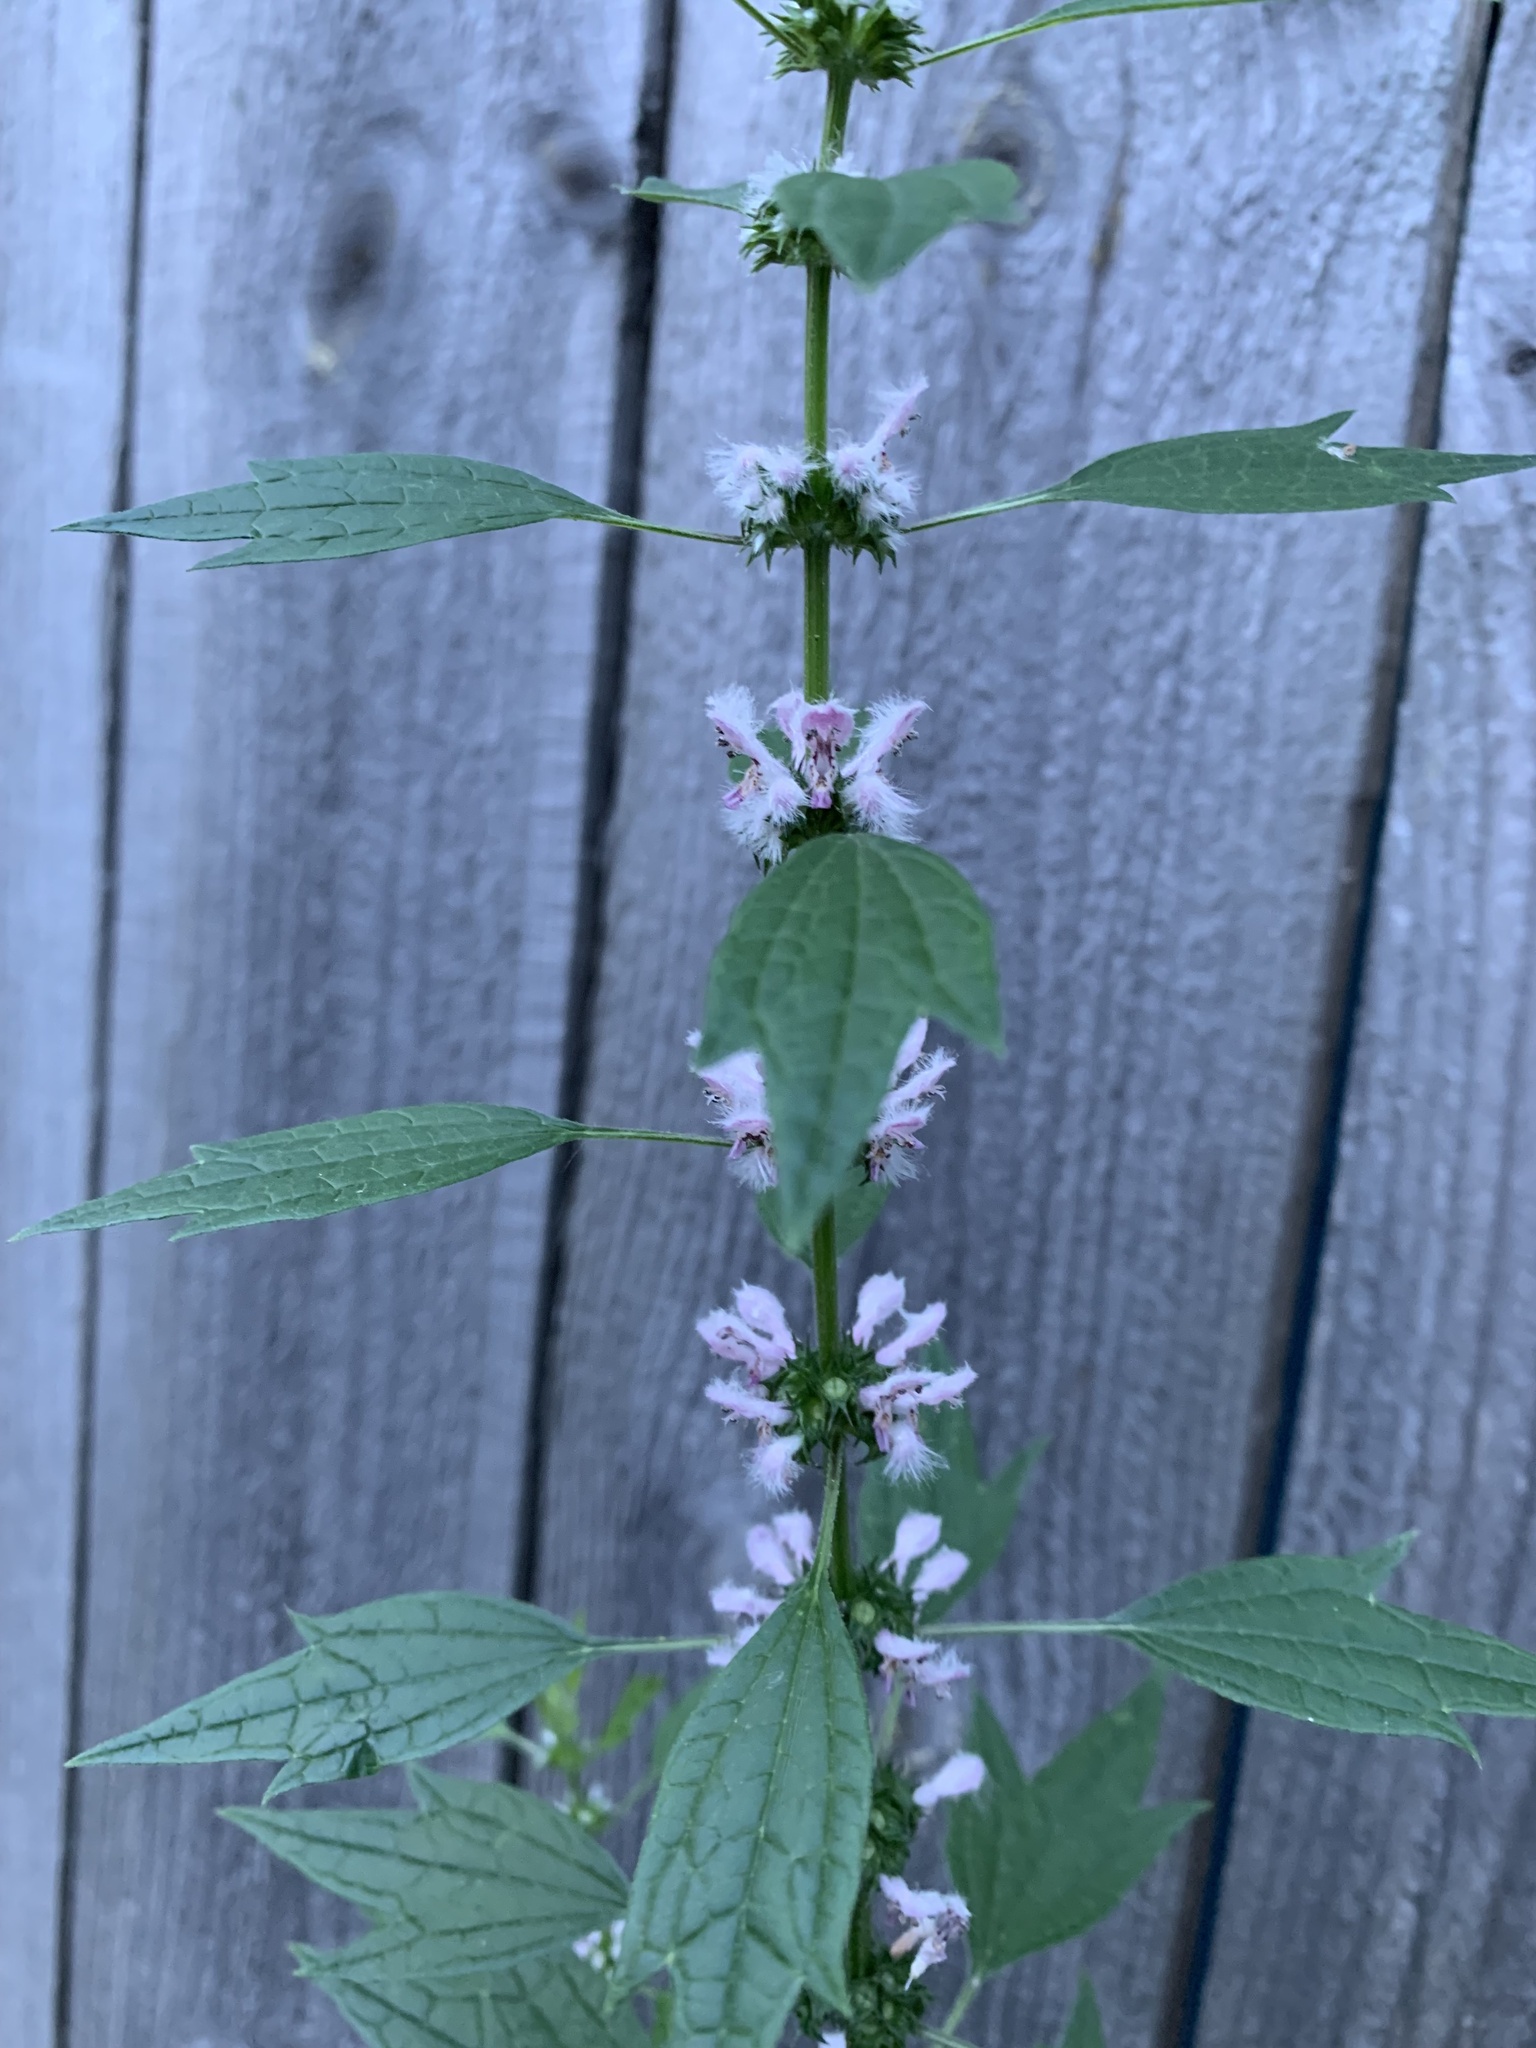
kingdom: Plantae
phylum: Tracheophyta
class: Magnoliopsida
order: Lamiales
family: Lamiaceae
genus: Leonurus
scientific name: Leonurus cardiaca
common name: Motherwort
